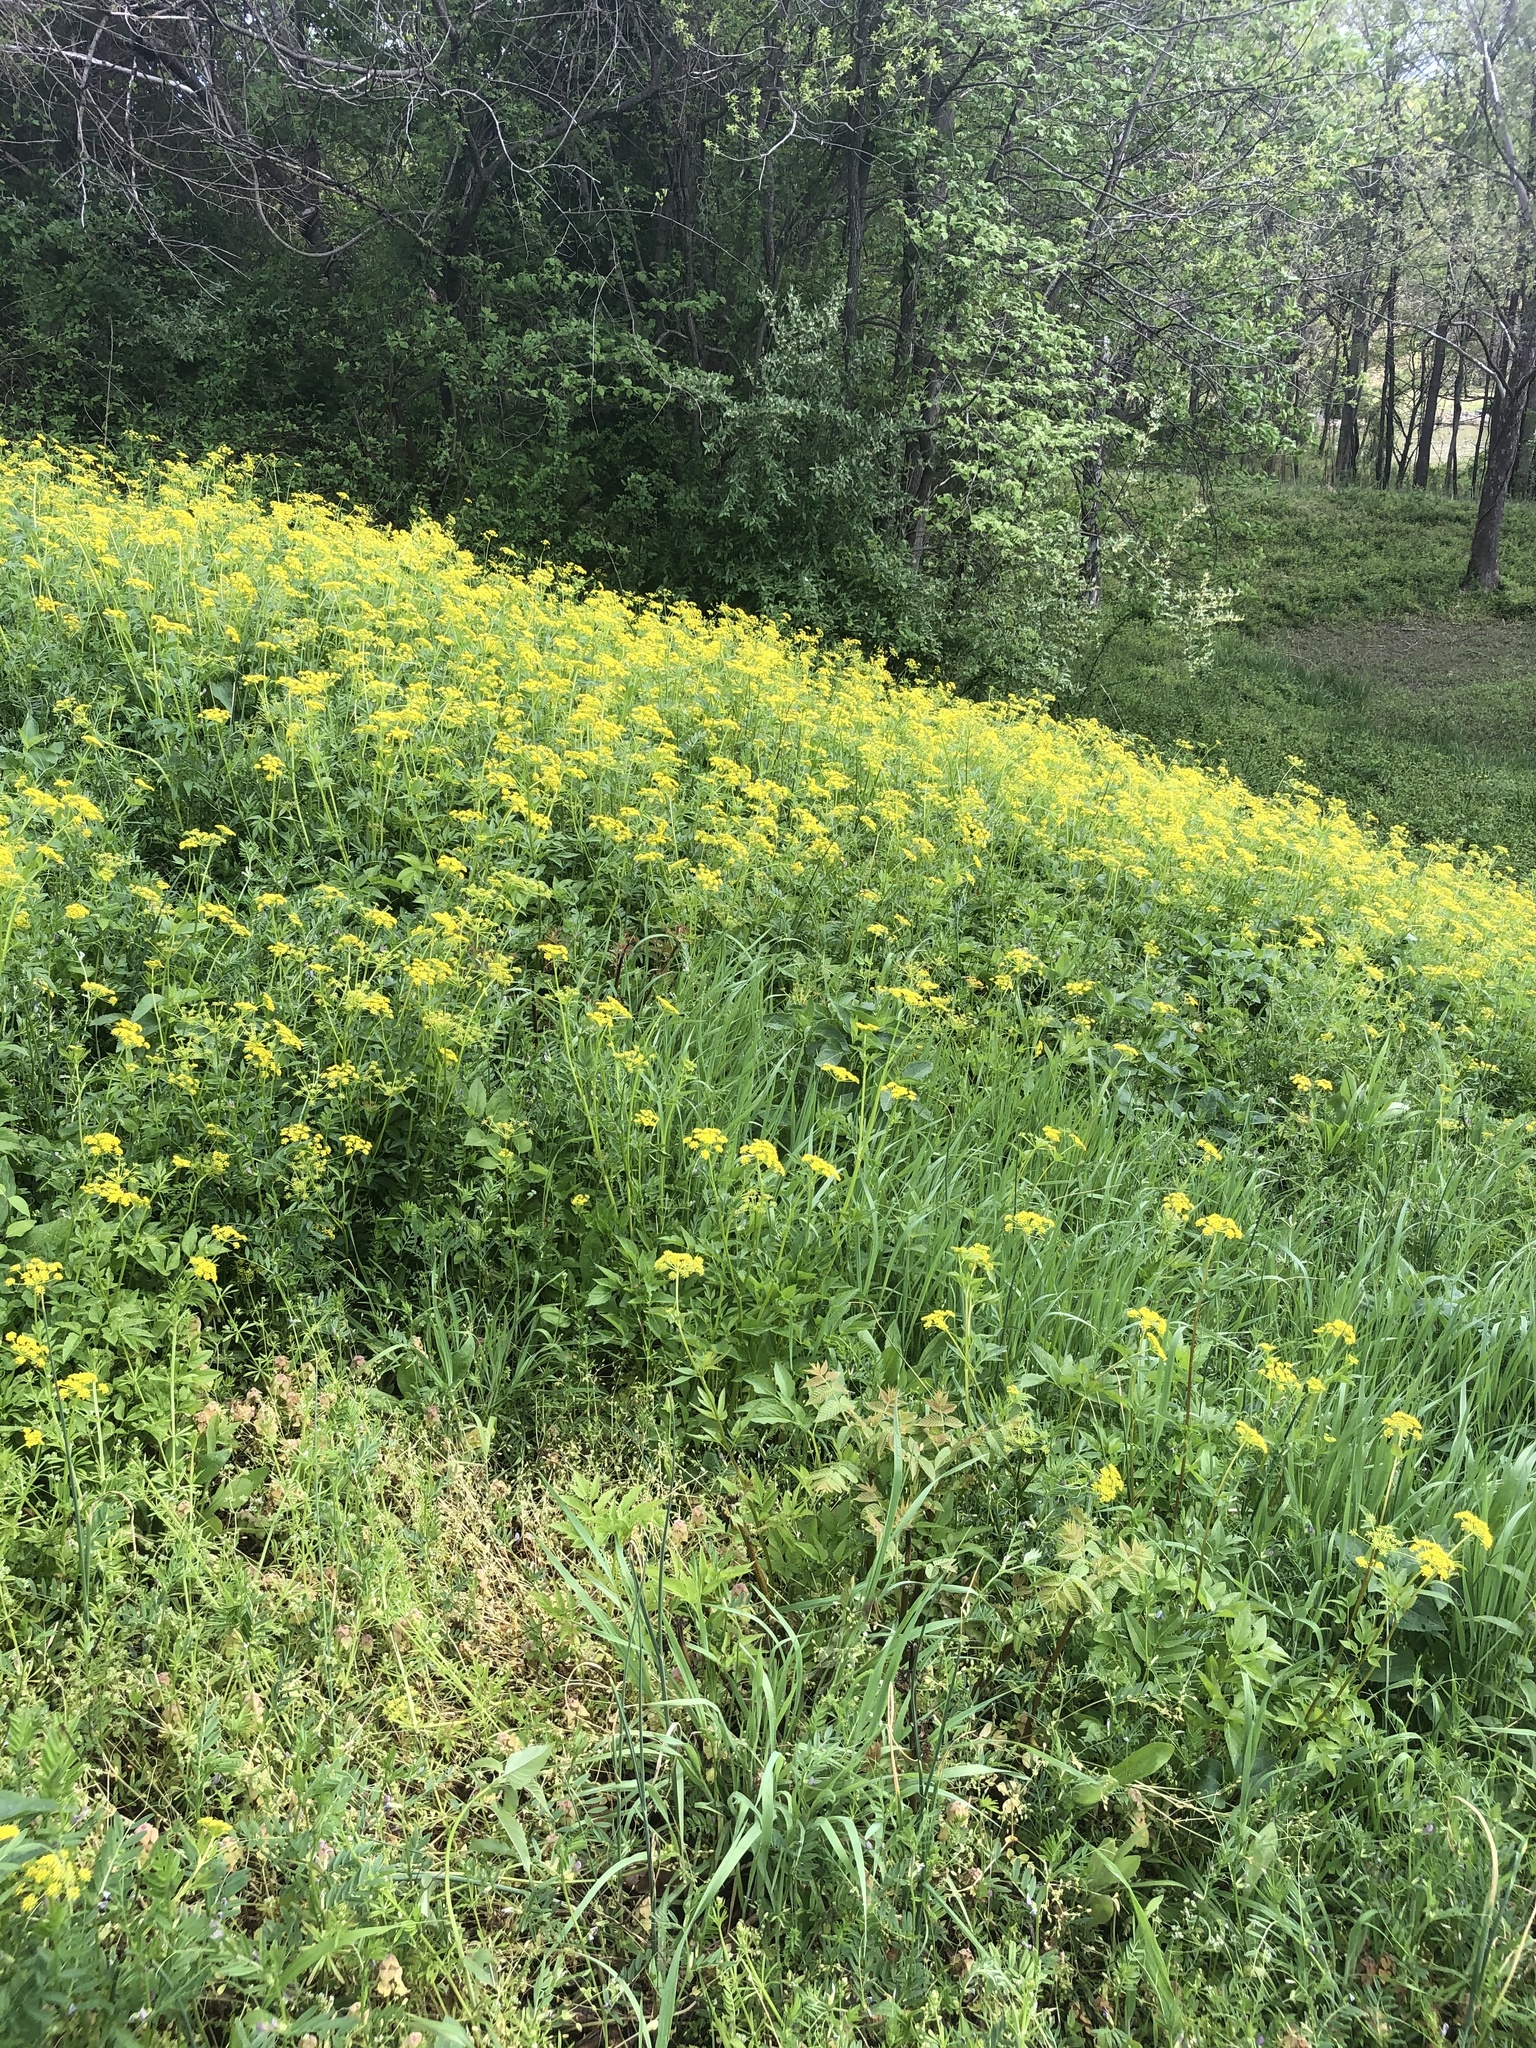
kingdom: Plantae
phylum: Tracheophyta
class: Magnoliopsida
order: Apiales
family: Apiaceae
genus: Zizia
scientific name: Zizia aurea
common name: Golden alexanders
